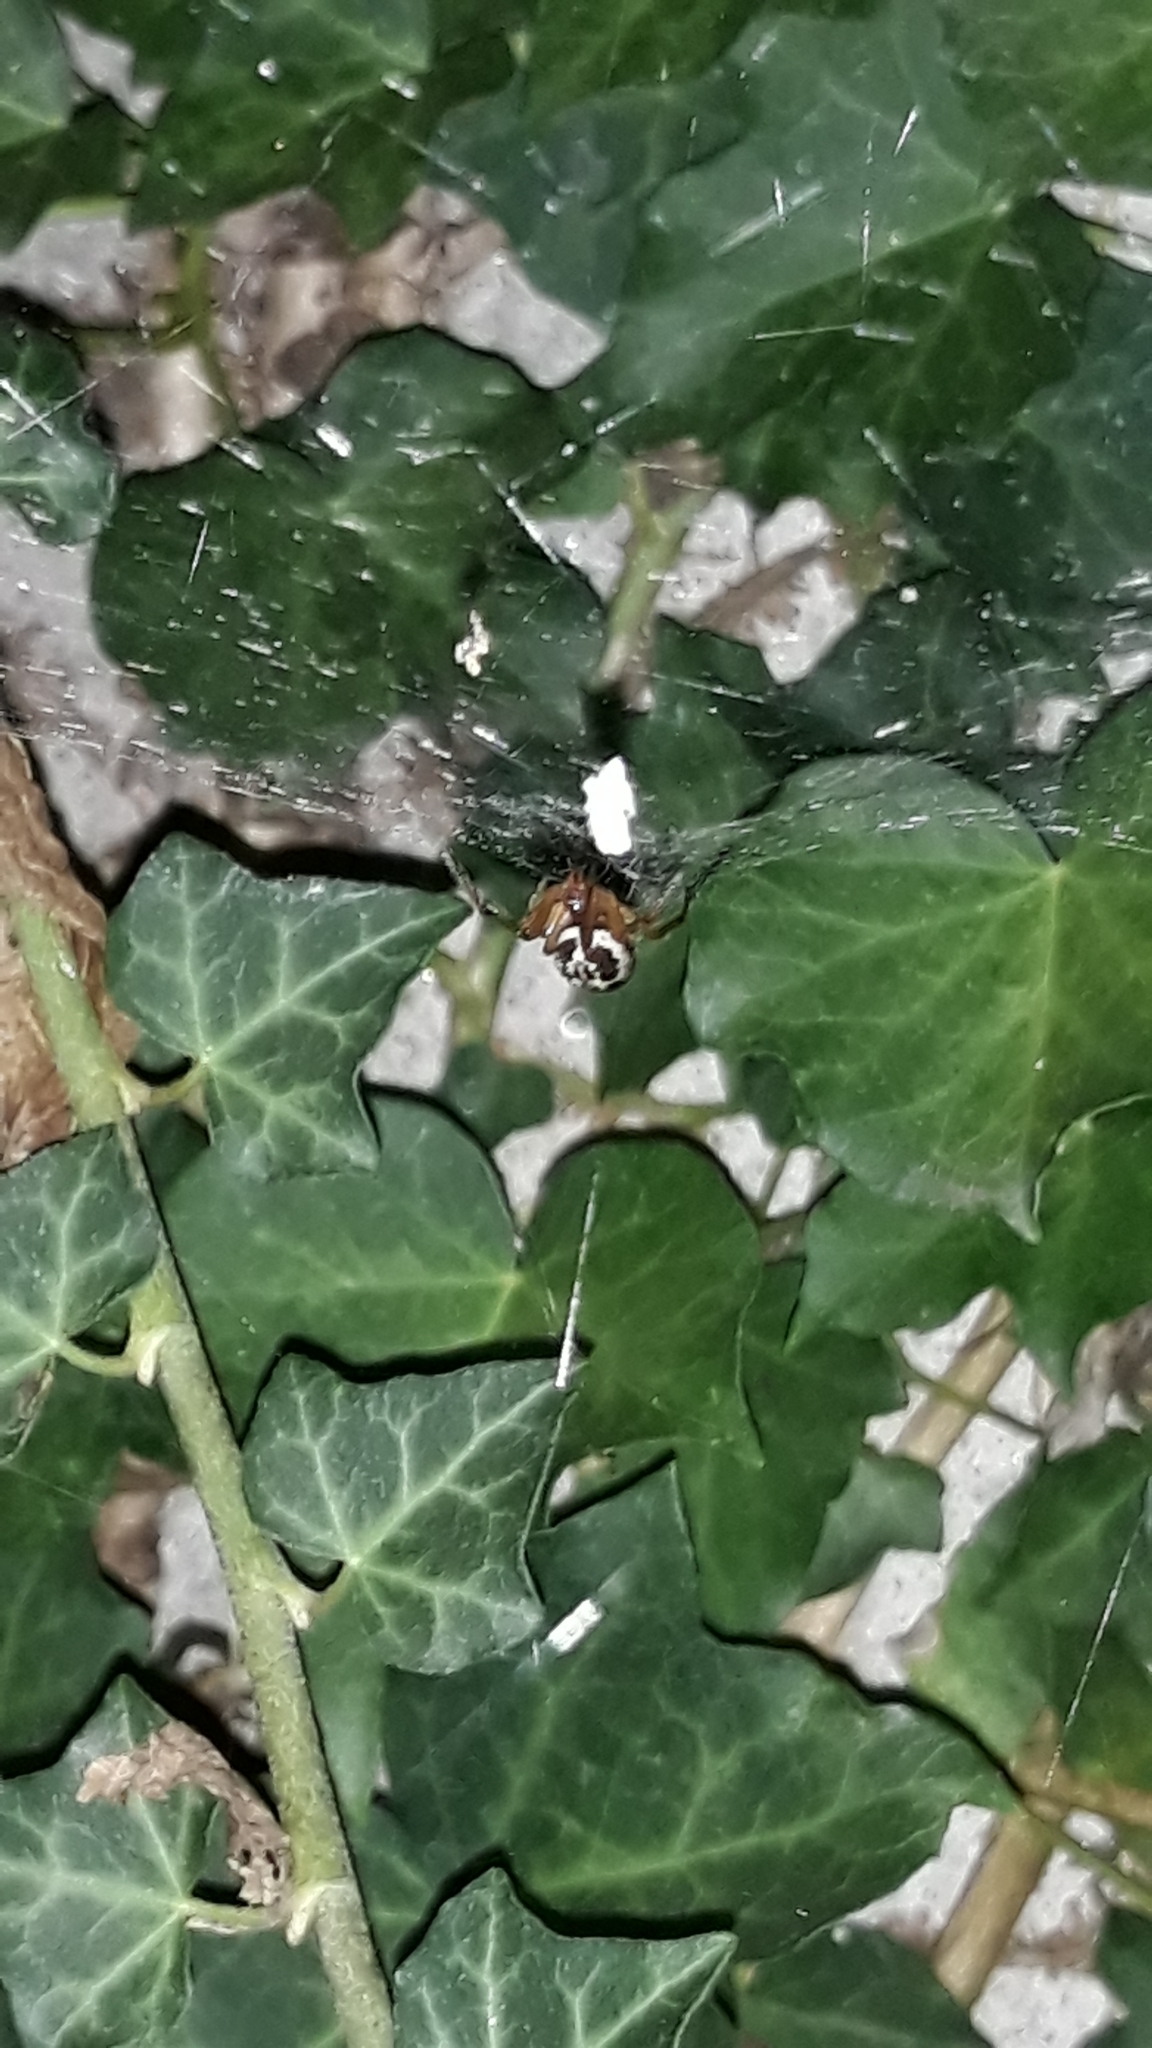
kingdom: Animalia
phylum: Arthropoda
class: Arachnida
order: Araneae
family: Theridiidae
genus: Steatoda
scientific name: Steatoda nobilis
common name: Cobweb weaver
